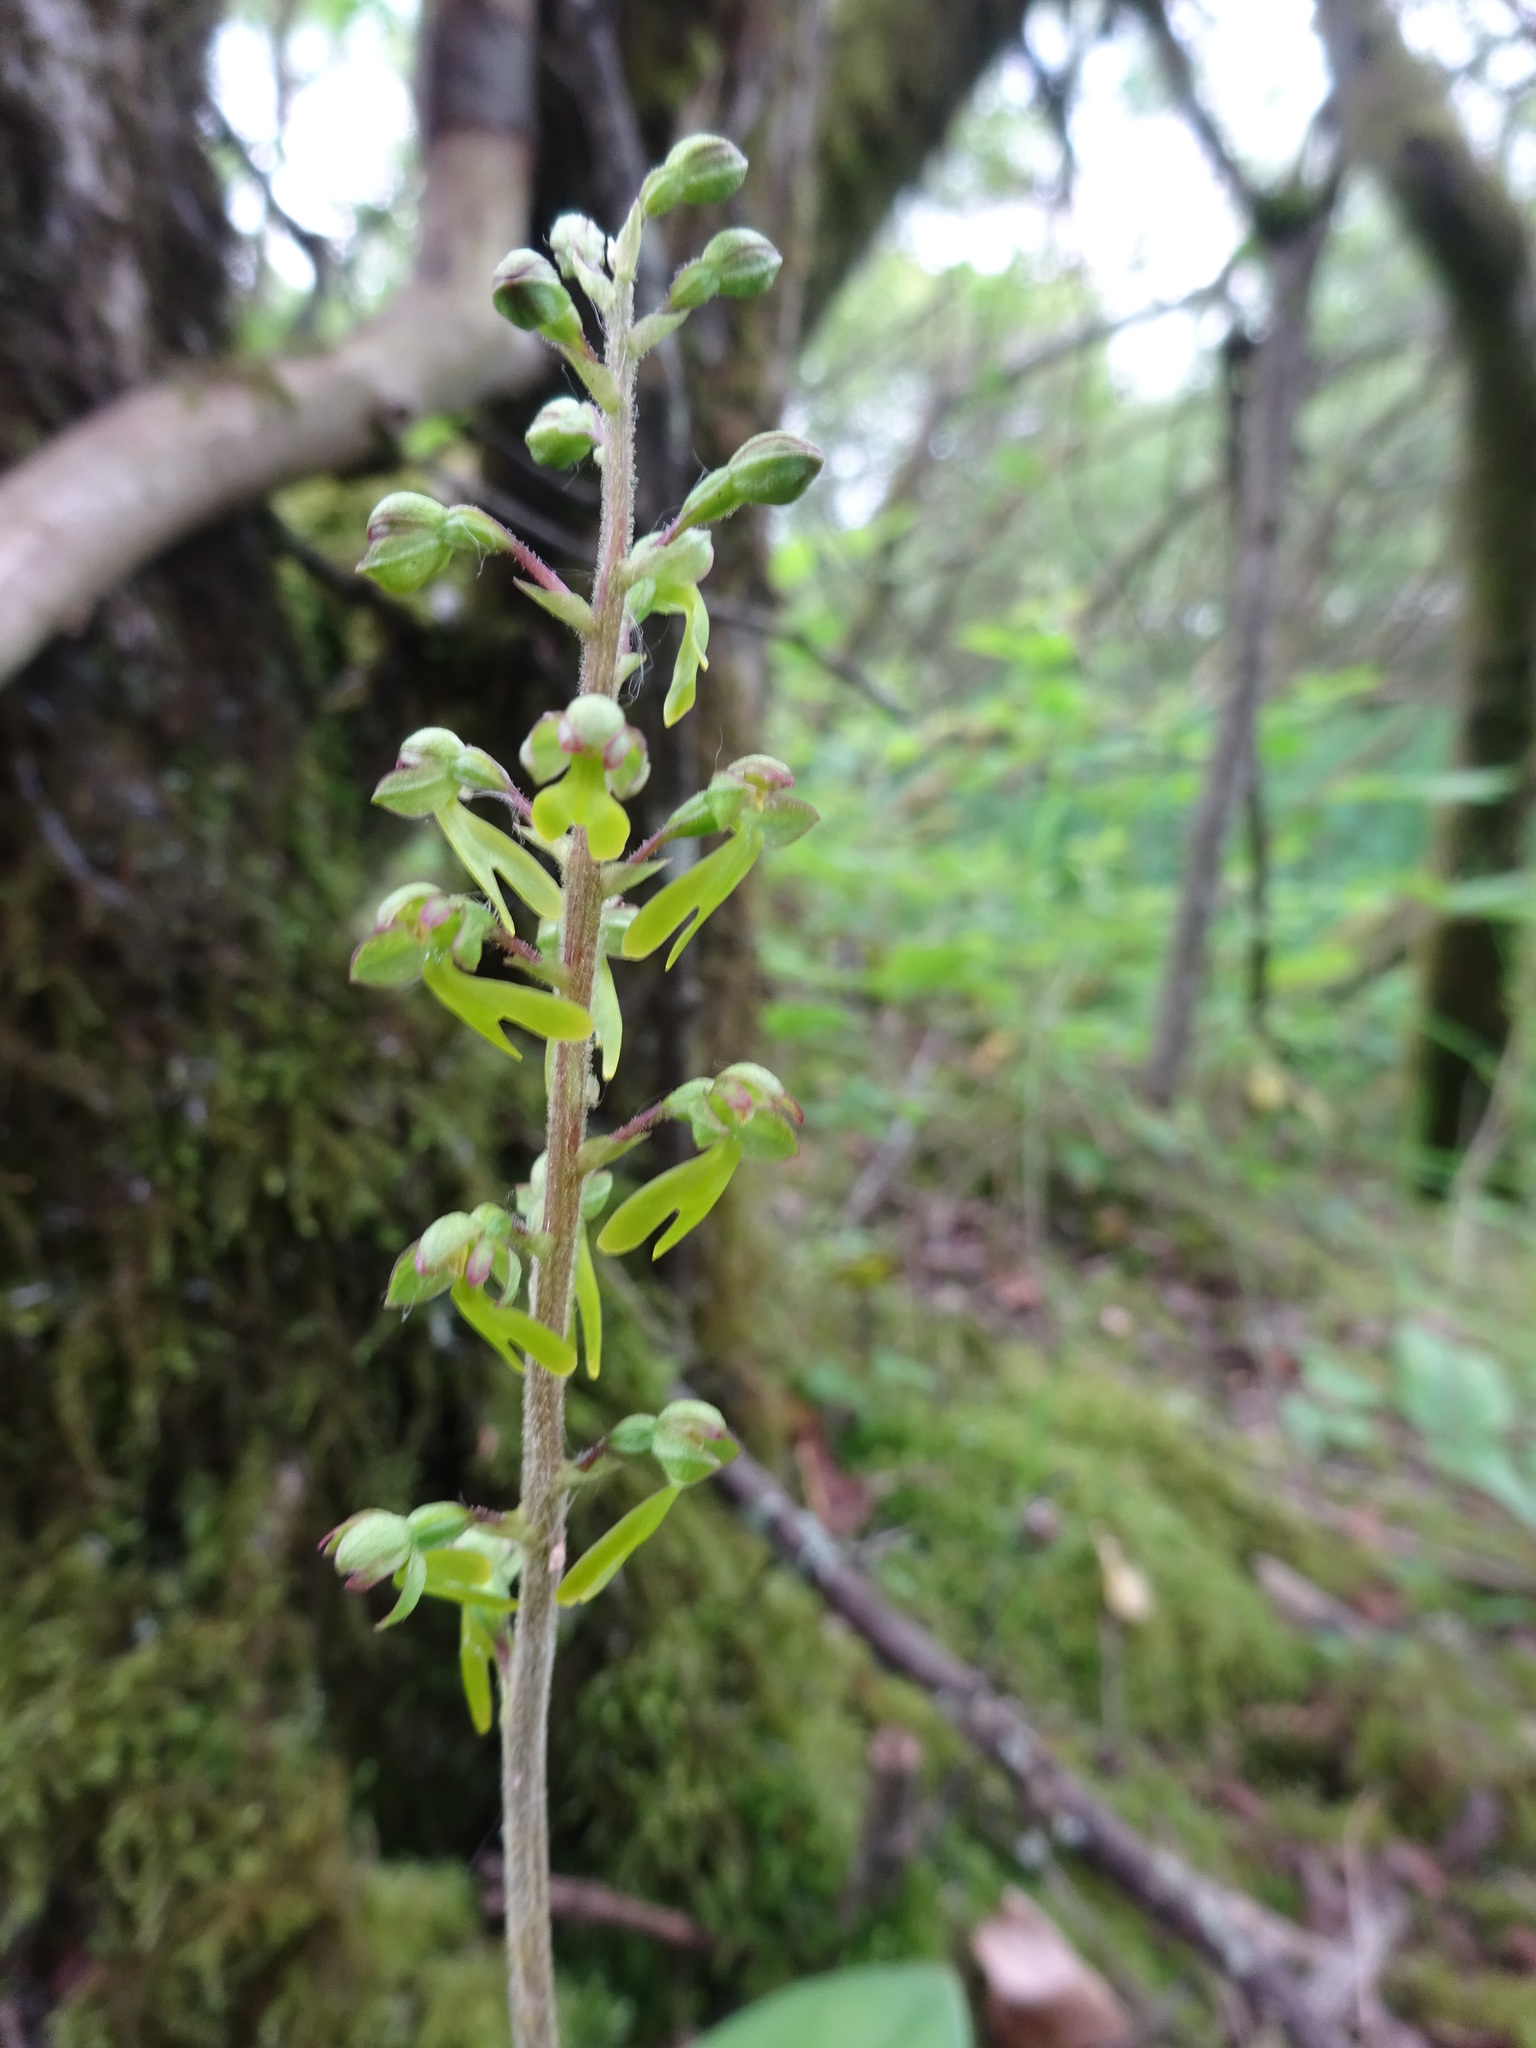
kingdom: Plantae
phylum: Tracheophyta
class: Liliopsida
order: Asparagales
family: Orchidaceae
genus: Neottia
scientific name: Neottia ovata
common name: Common twayblade
